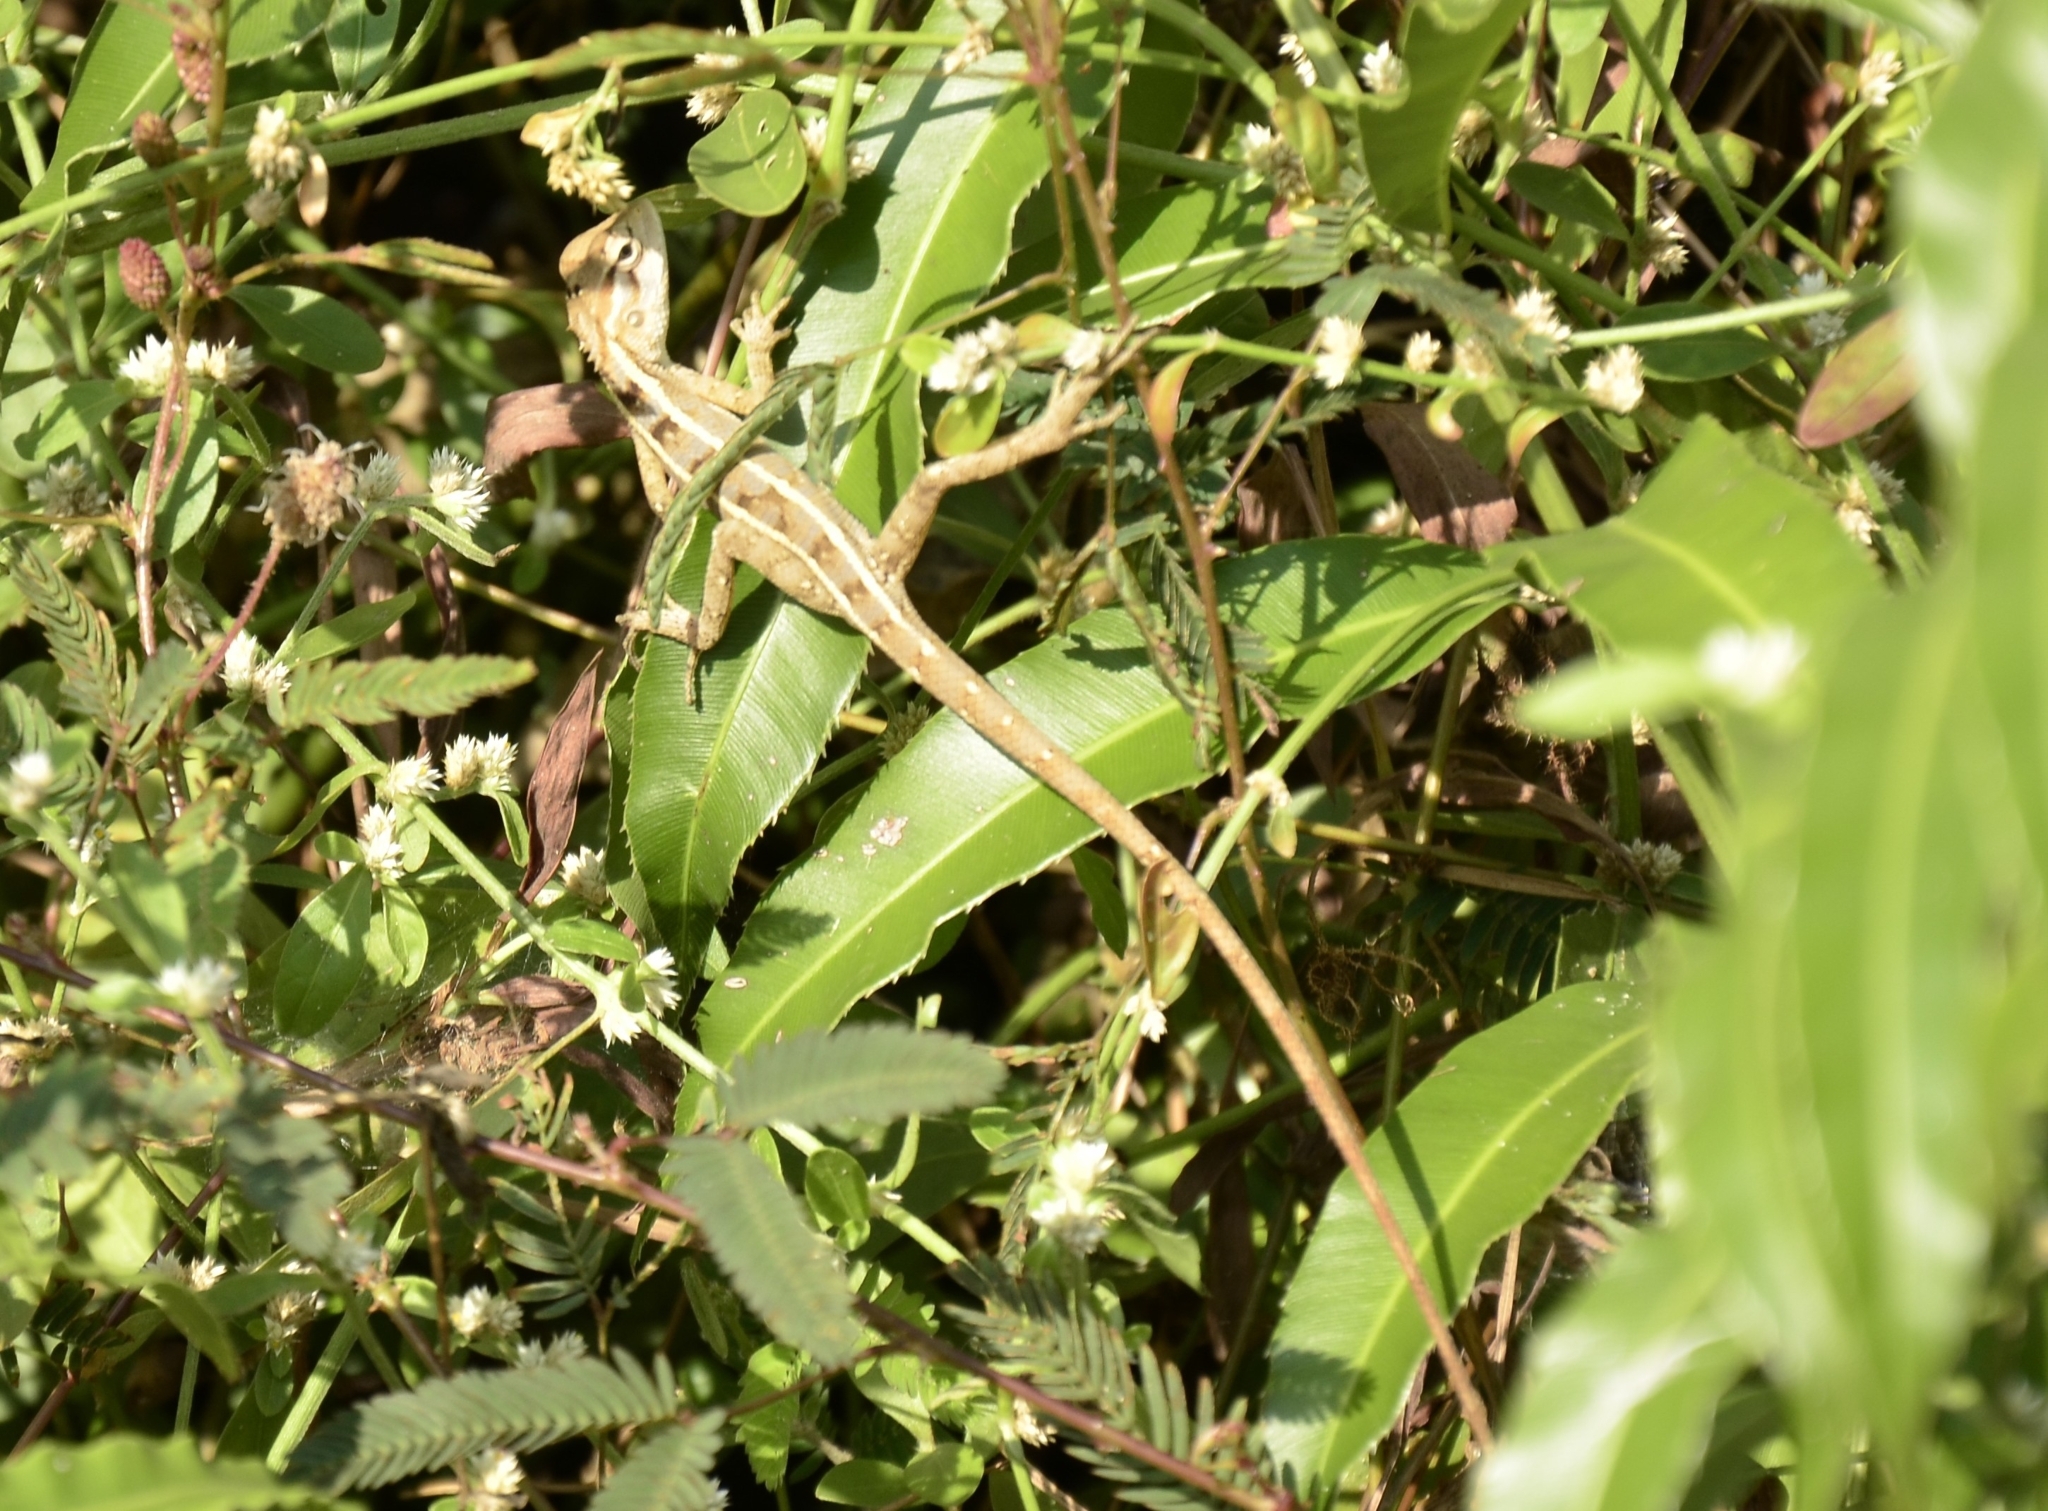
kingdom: Animalia
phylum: Chordata
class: Squamata
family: Agamidae
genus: Calotes
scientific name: Calotes versicolor
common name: Oriental garden lizard
